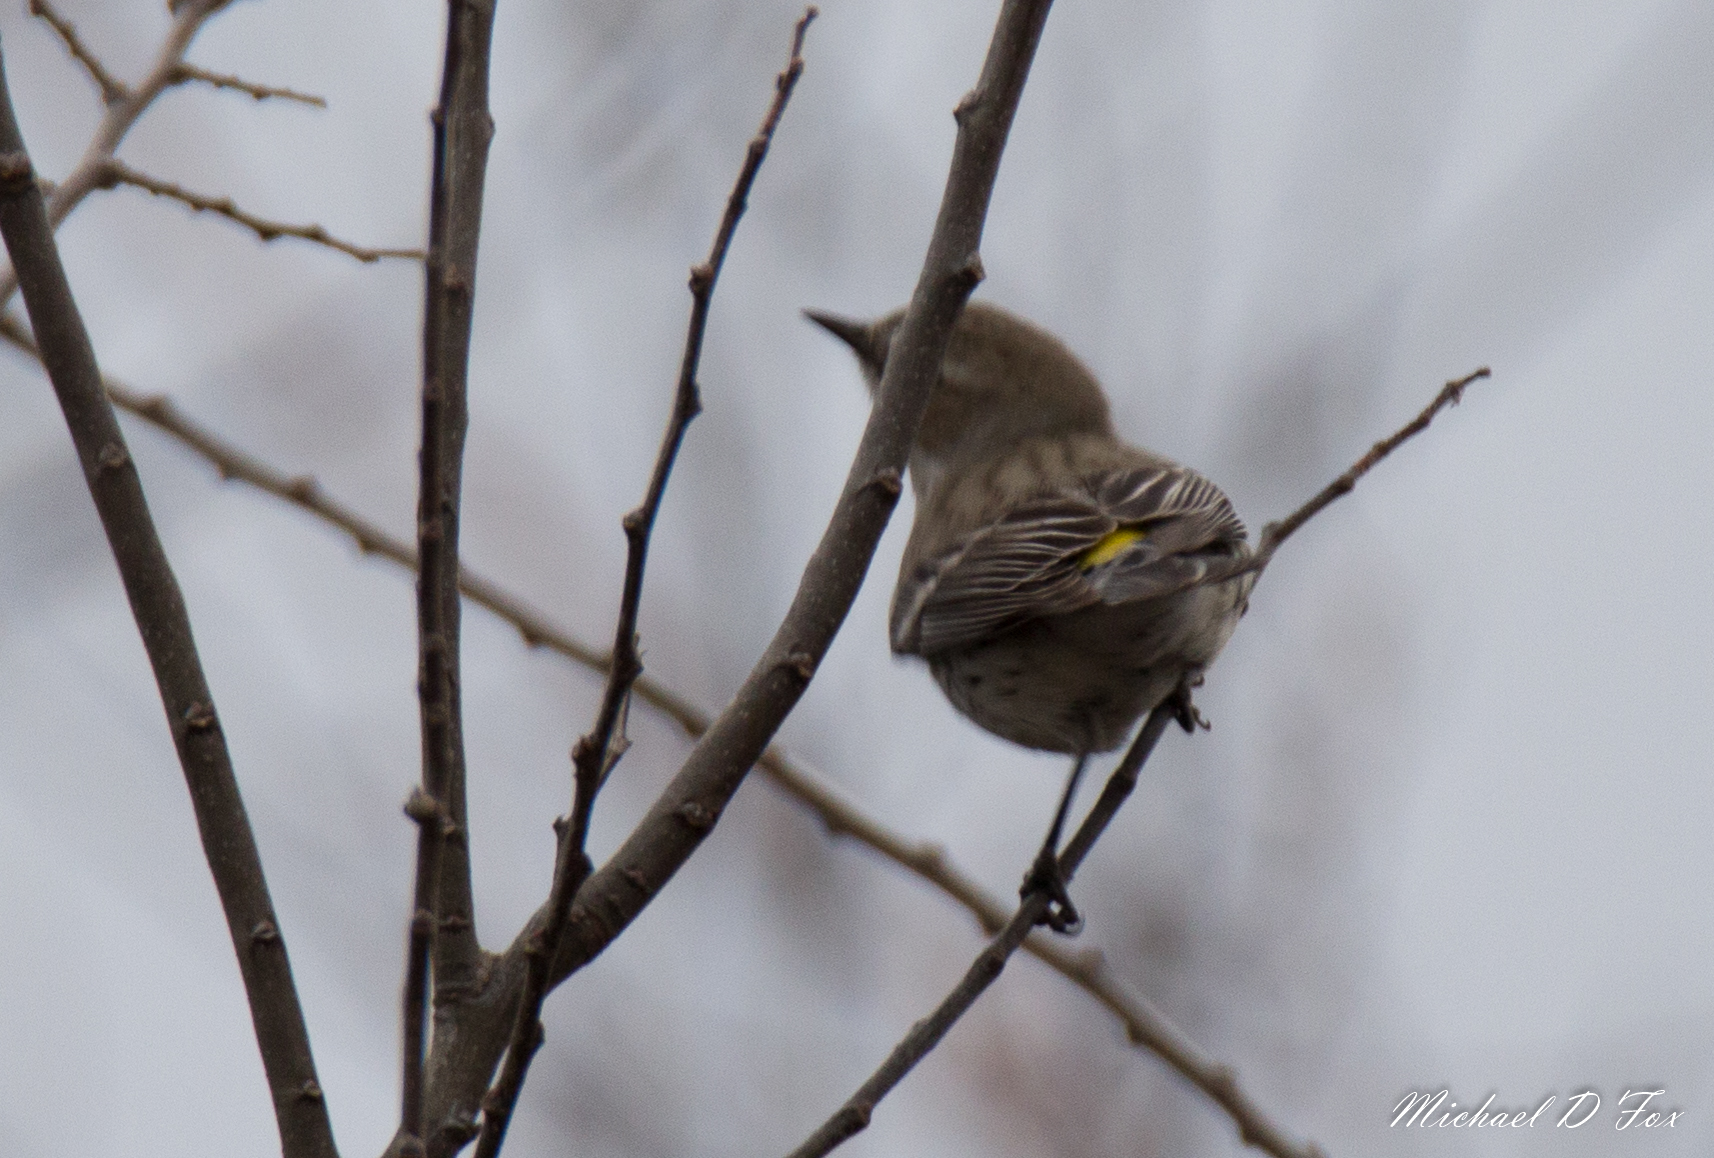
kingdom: Animalia
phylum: Chordata
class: Aves
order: Passeriformes
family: Parulidae
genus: Setophaga
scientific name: Setophaga coronata
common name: Myrtle warbler
